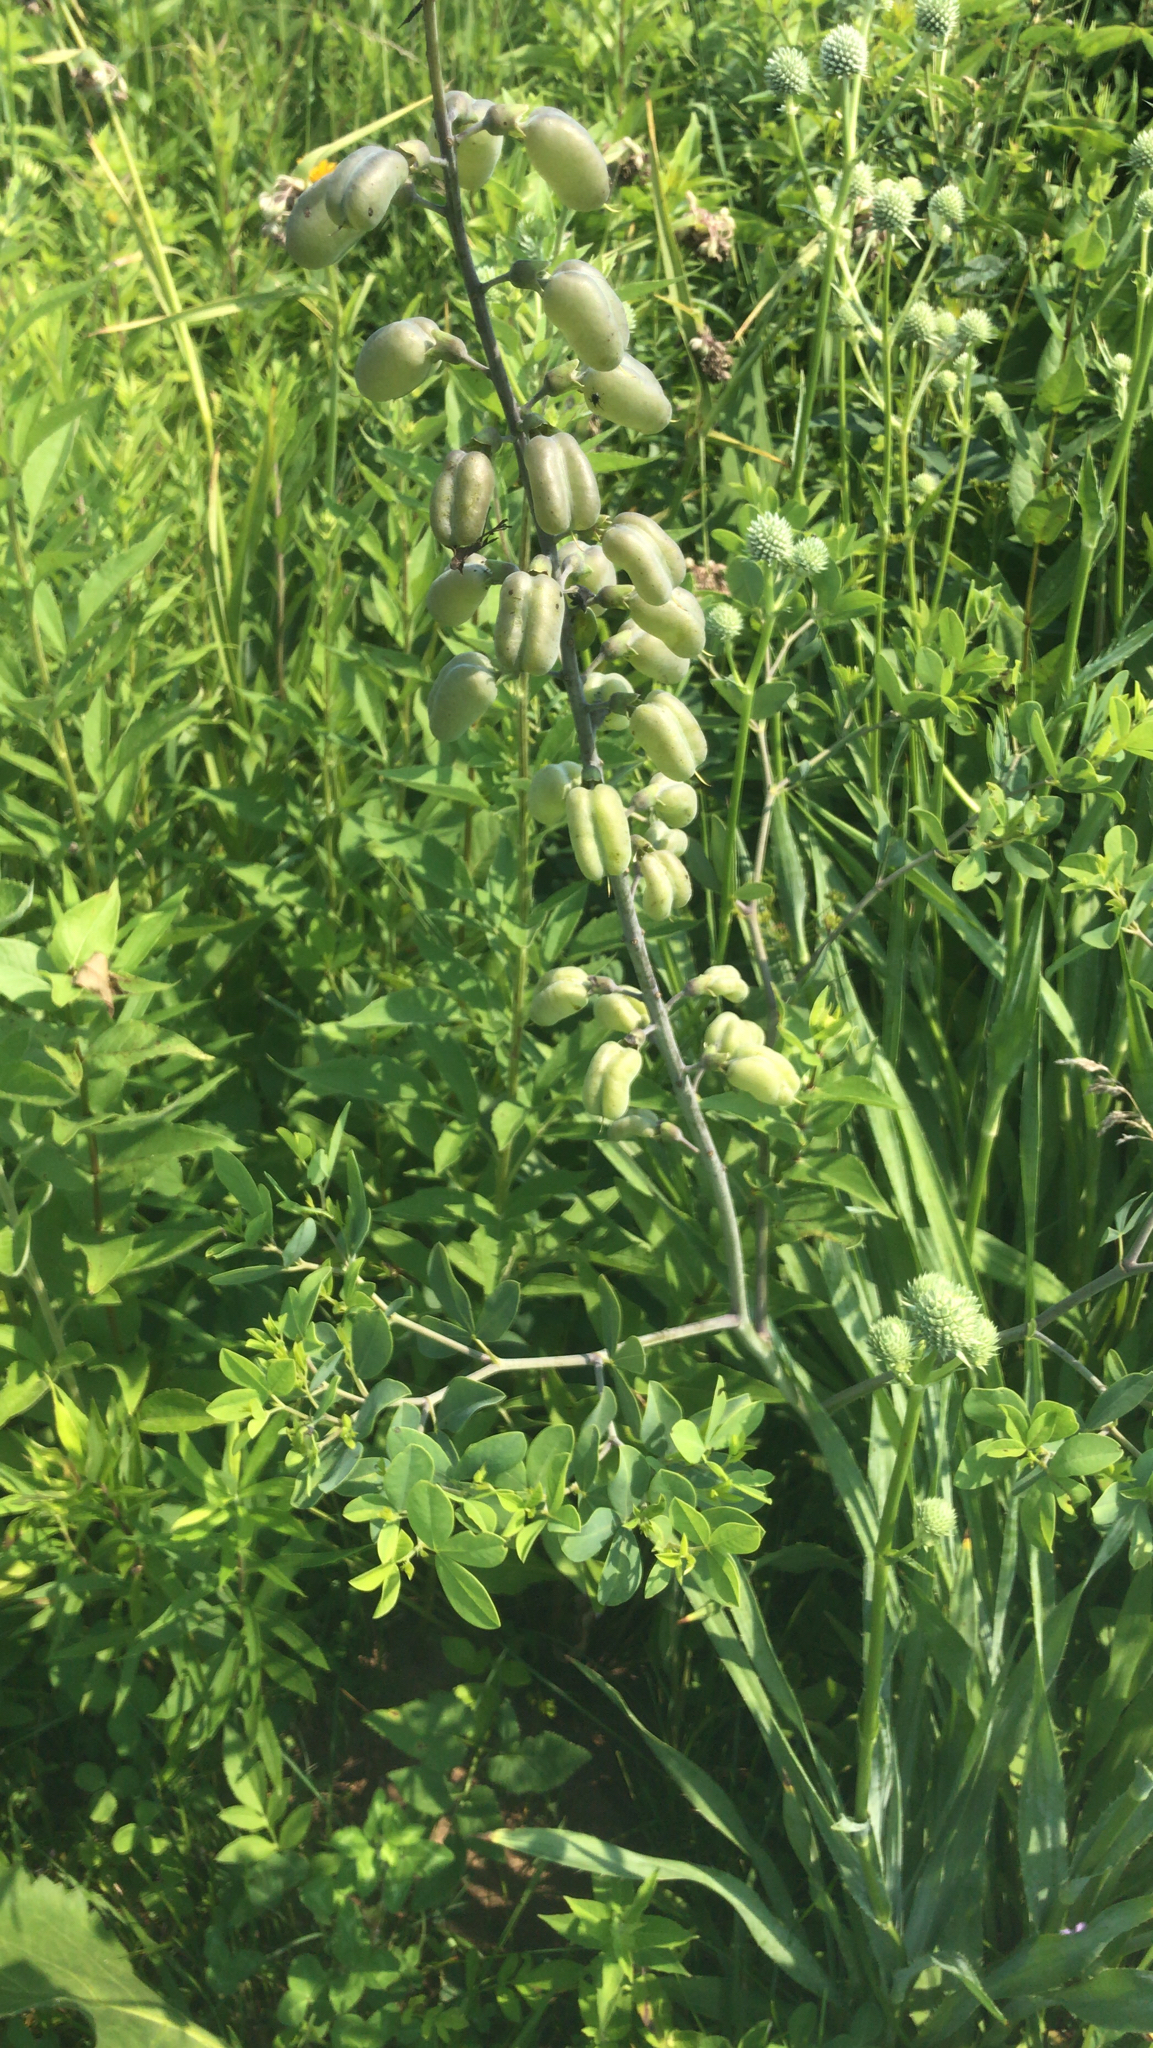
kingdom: Plantae
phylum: Tracheophyta
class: Magnoliopsida
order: Fabales
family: Fabaceae
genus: Baptisia
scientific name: Baptisia alba
